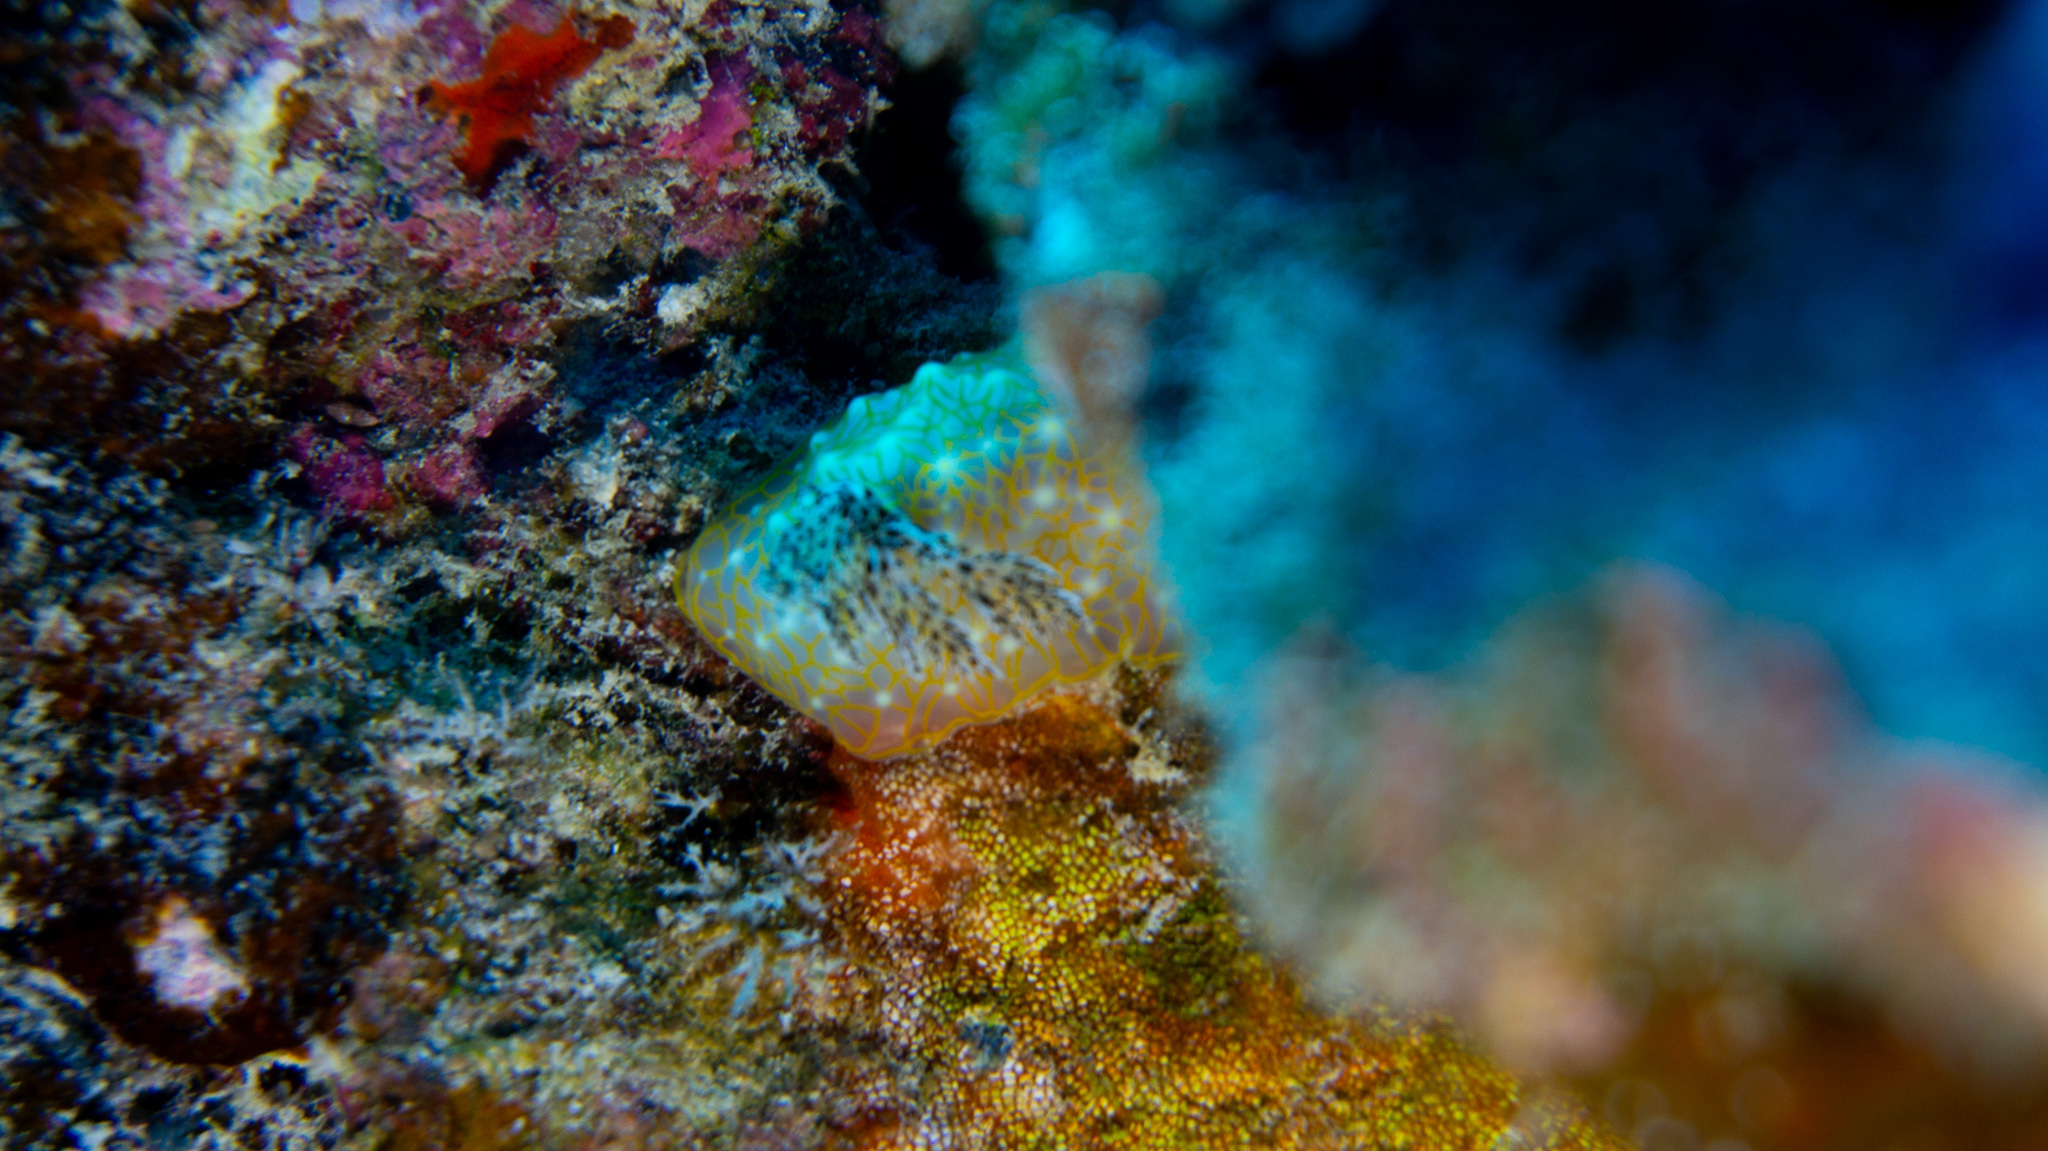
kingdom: Animalia
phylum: Mollusca
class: Gastropoda
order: Nudibranchia
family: Discodorididae
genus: Halgerda
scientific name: Halgerda terramtuentis
